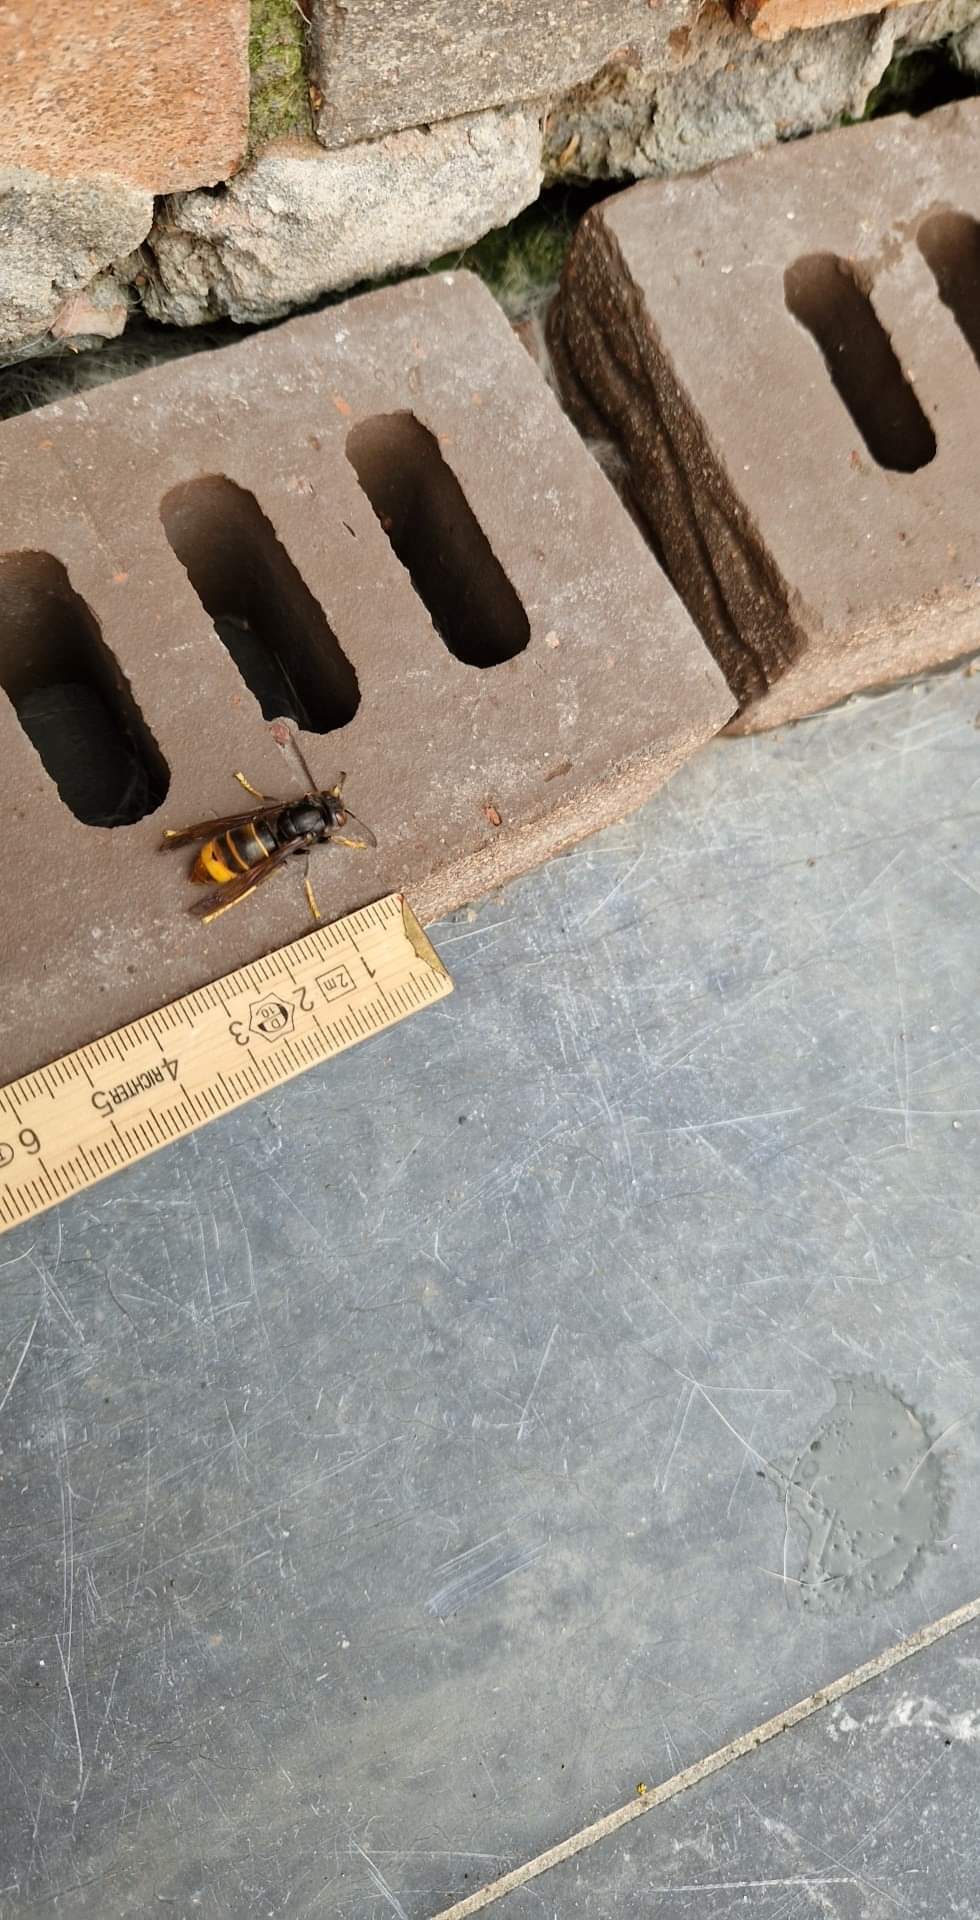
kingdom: Animalia
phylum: Arthropoda
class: Insecta
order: Hymenoptera
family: Vespidae
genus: Vespa
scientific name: Vespa velutina
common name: Asian hornet
